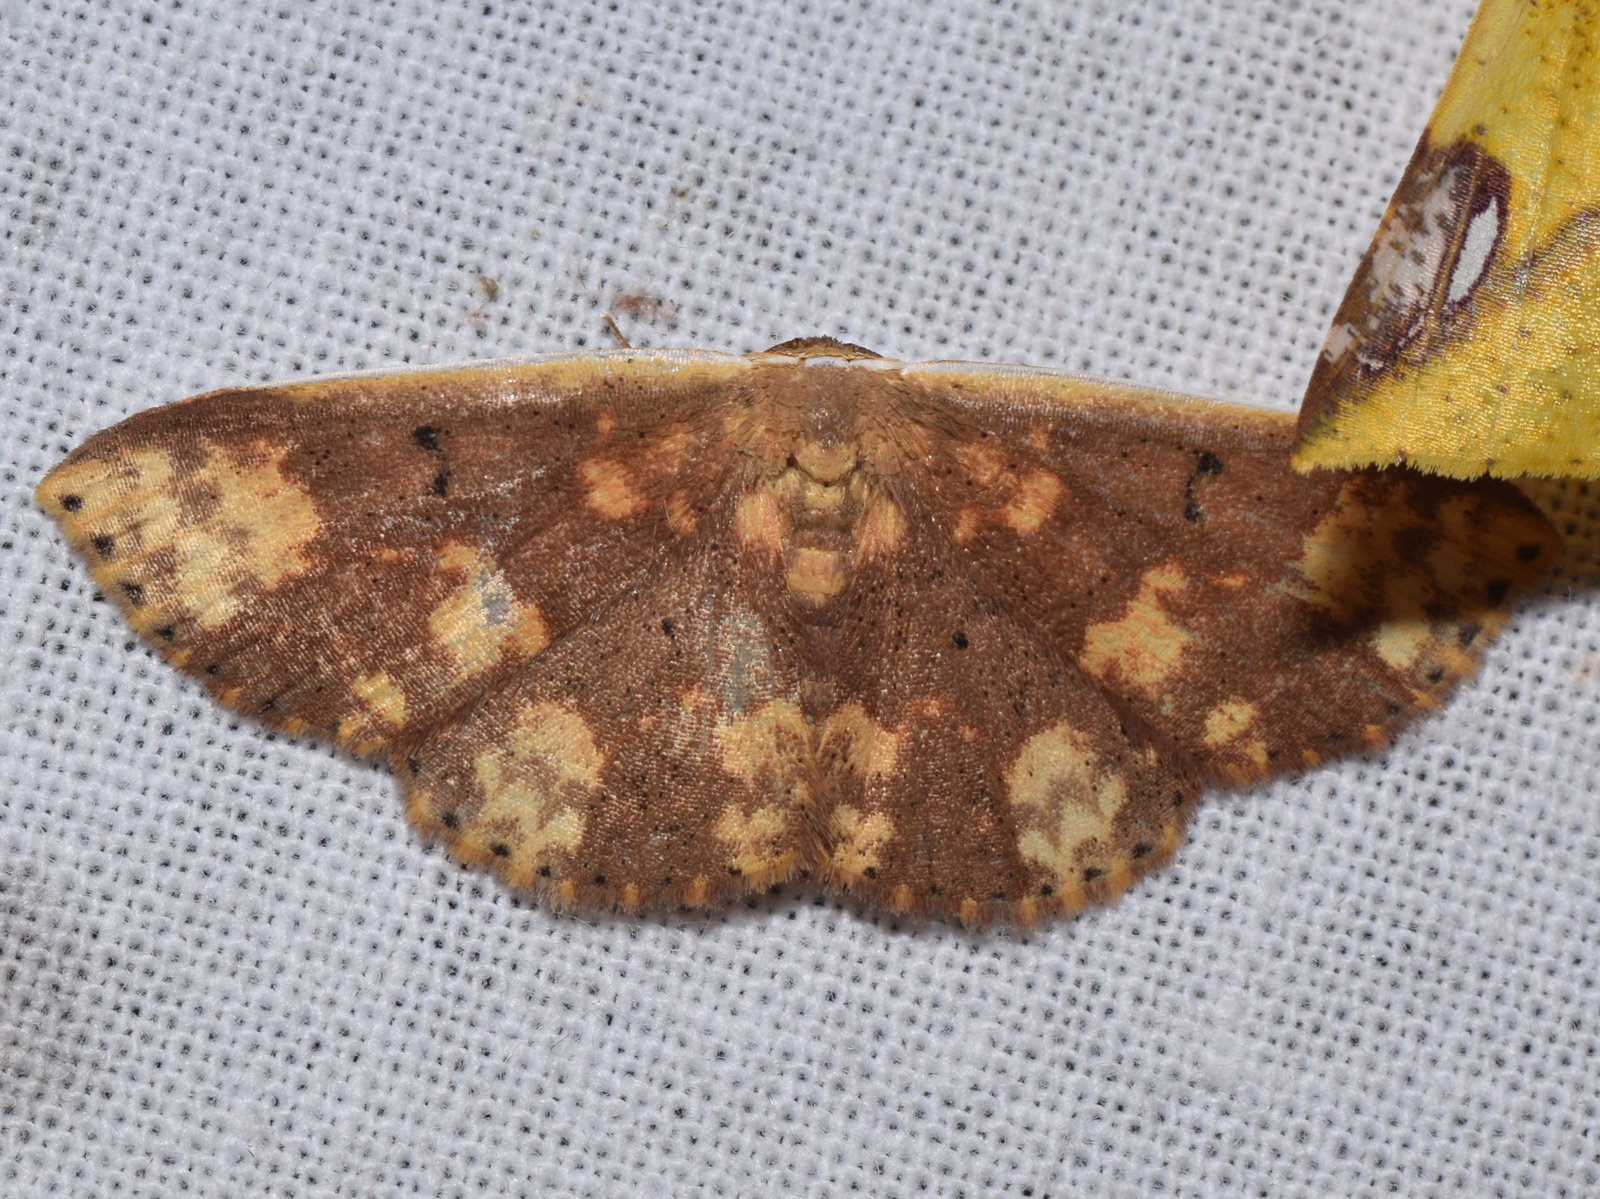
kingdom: Animalia
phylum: Arthropoda
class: Insecta
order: Lepidoptera
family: Noctuidae
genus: Arasada
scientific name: Arasada ornata
